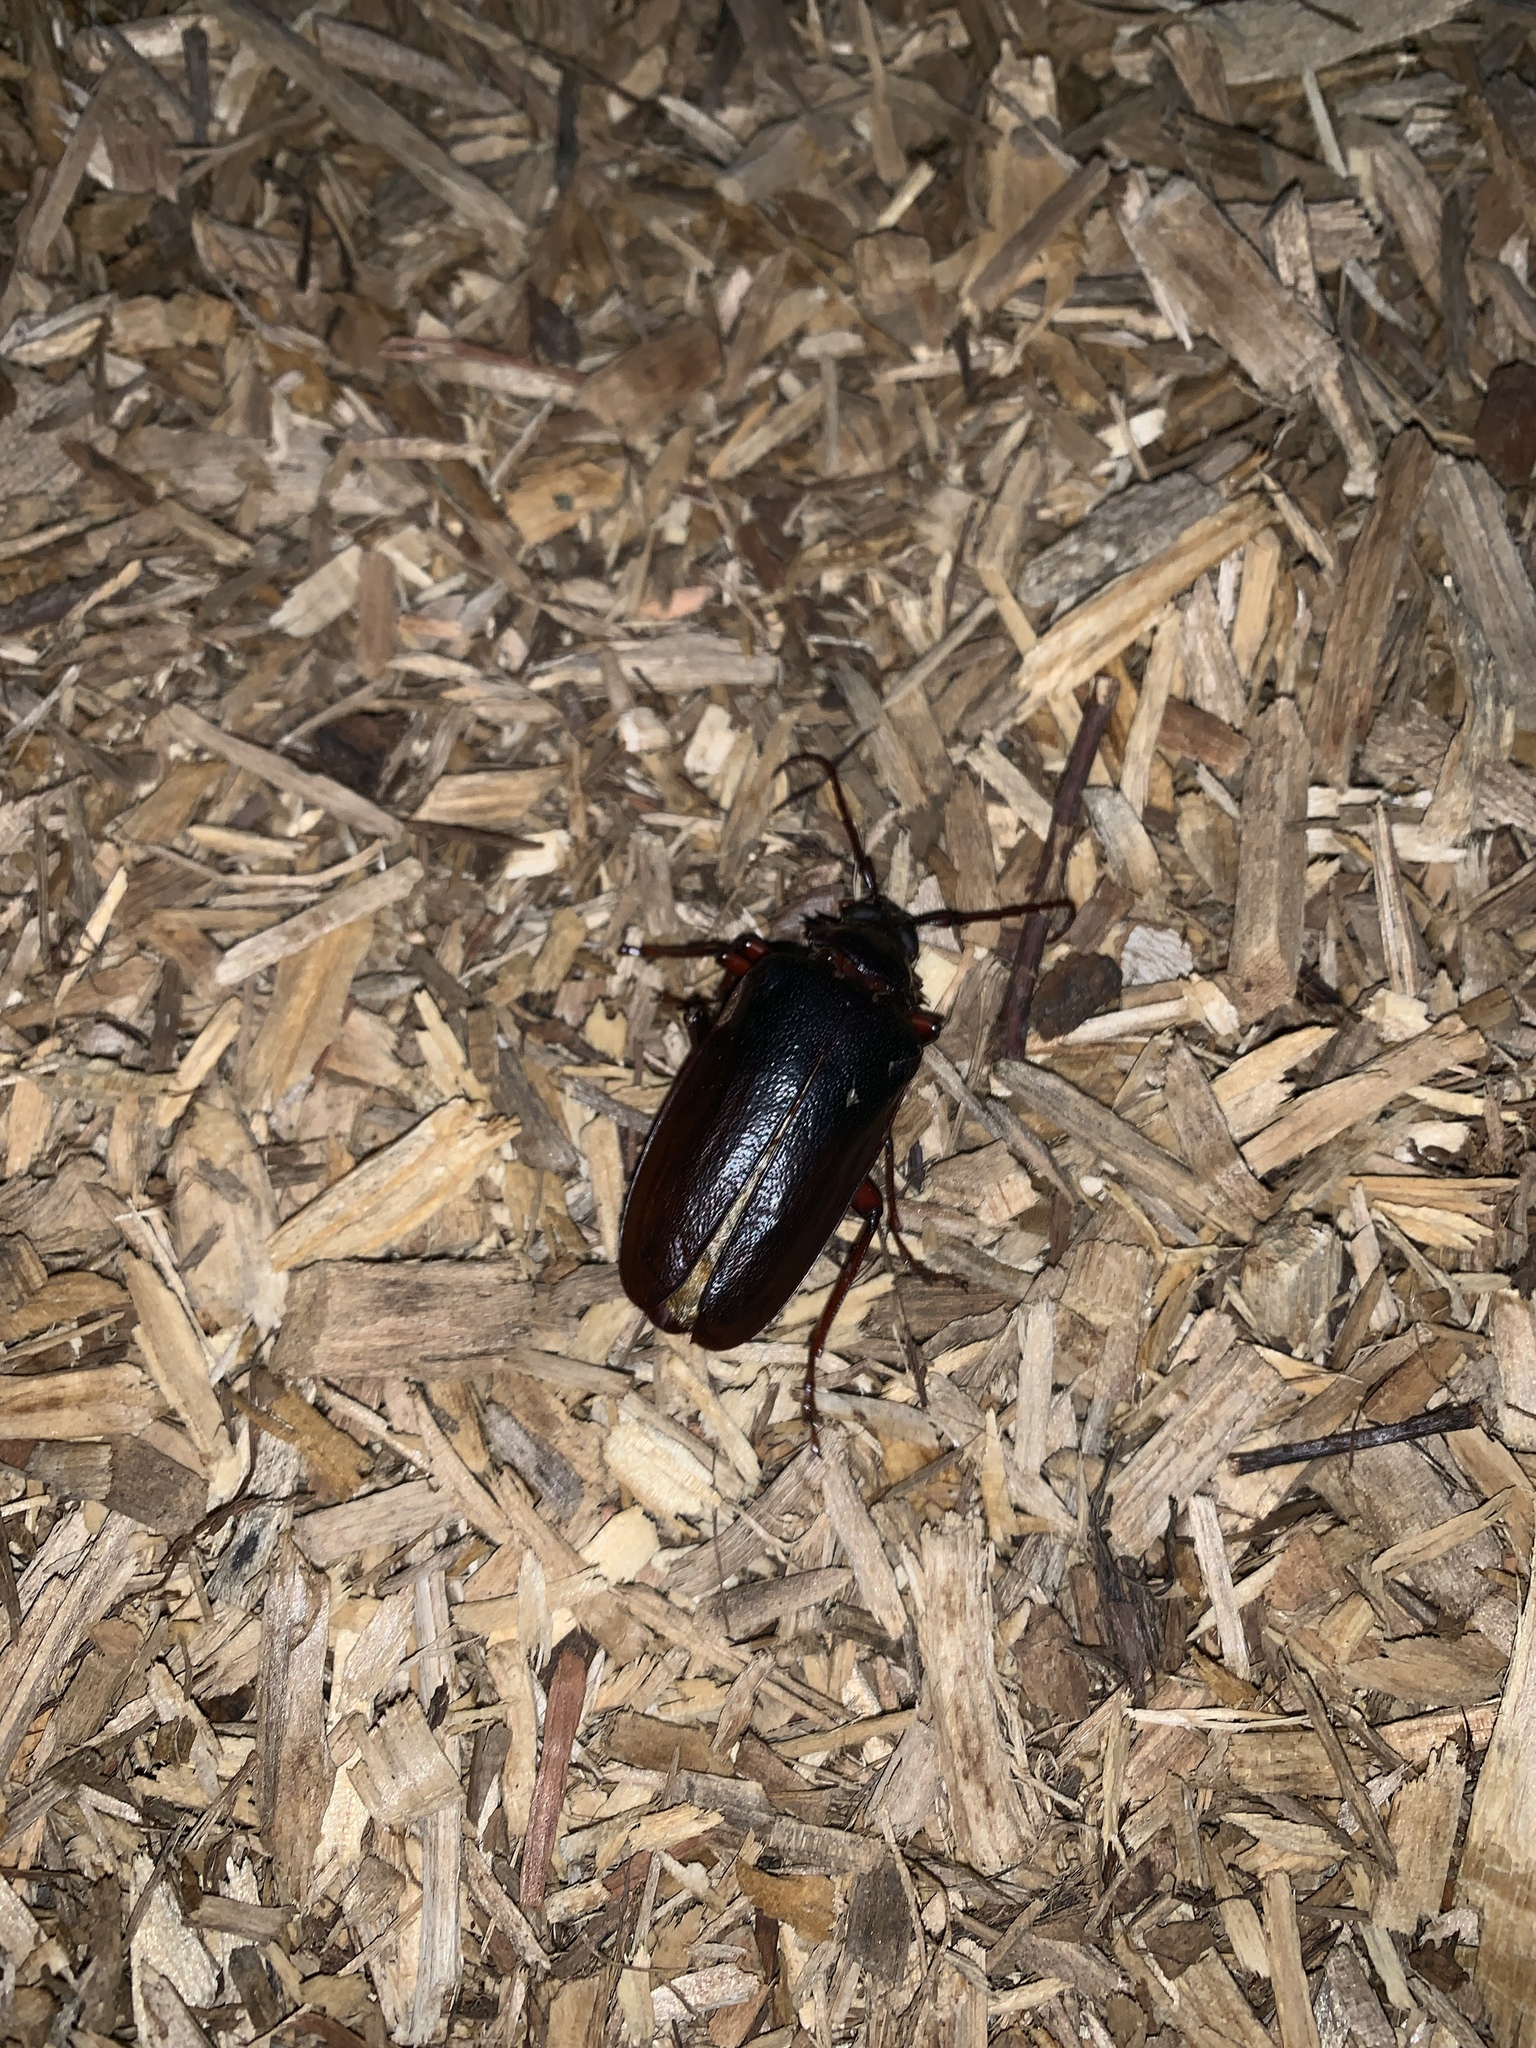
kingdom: Animalia
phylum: Arthropoda
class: Insecta
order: Coleoptera
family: Cerambycidae
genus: Prionus
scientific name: Prionus laticollis
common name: Broad necked prionus
